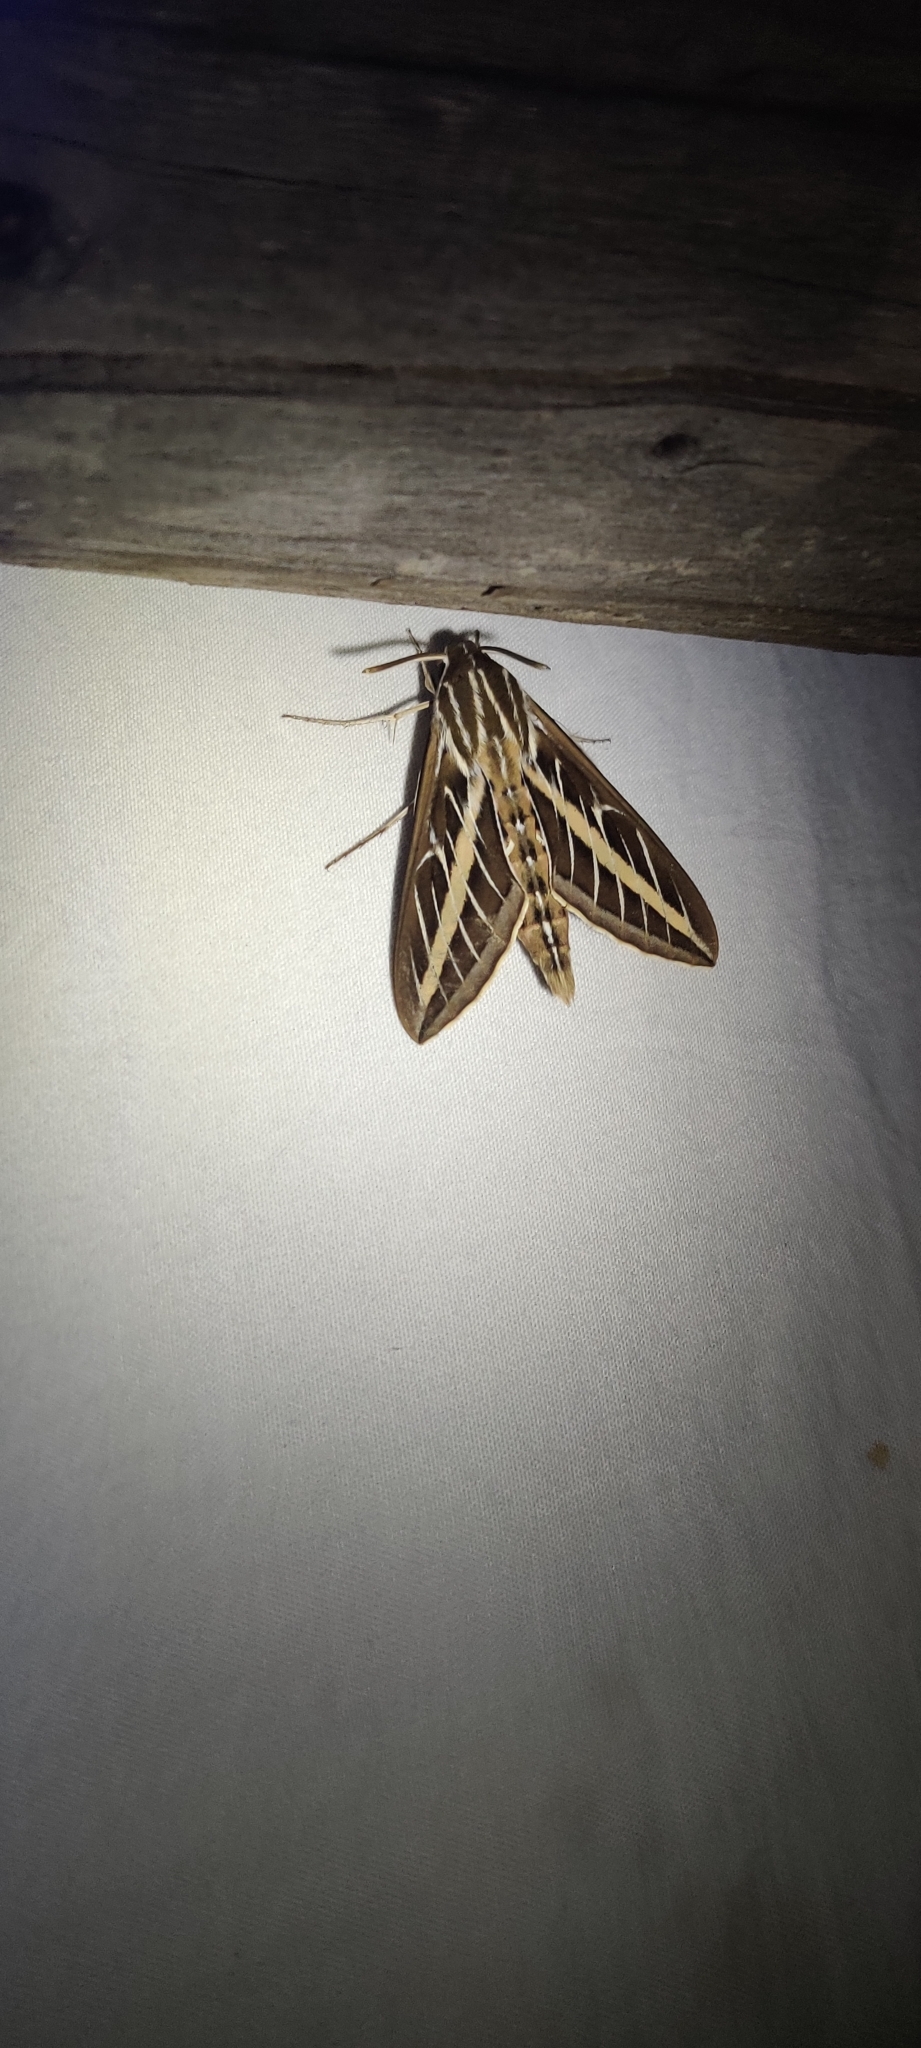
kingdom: Animalia
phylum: Arthropoda
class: Insecta
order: Lepidoptera
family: Sphingidae
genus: Hyles
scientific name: Hyles lineata
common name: White-lined sphinx
